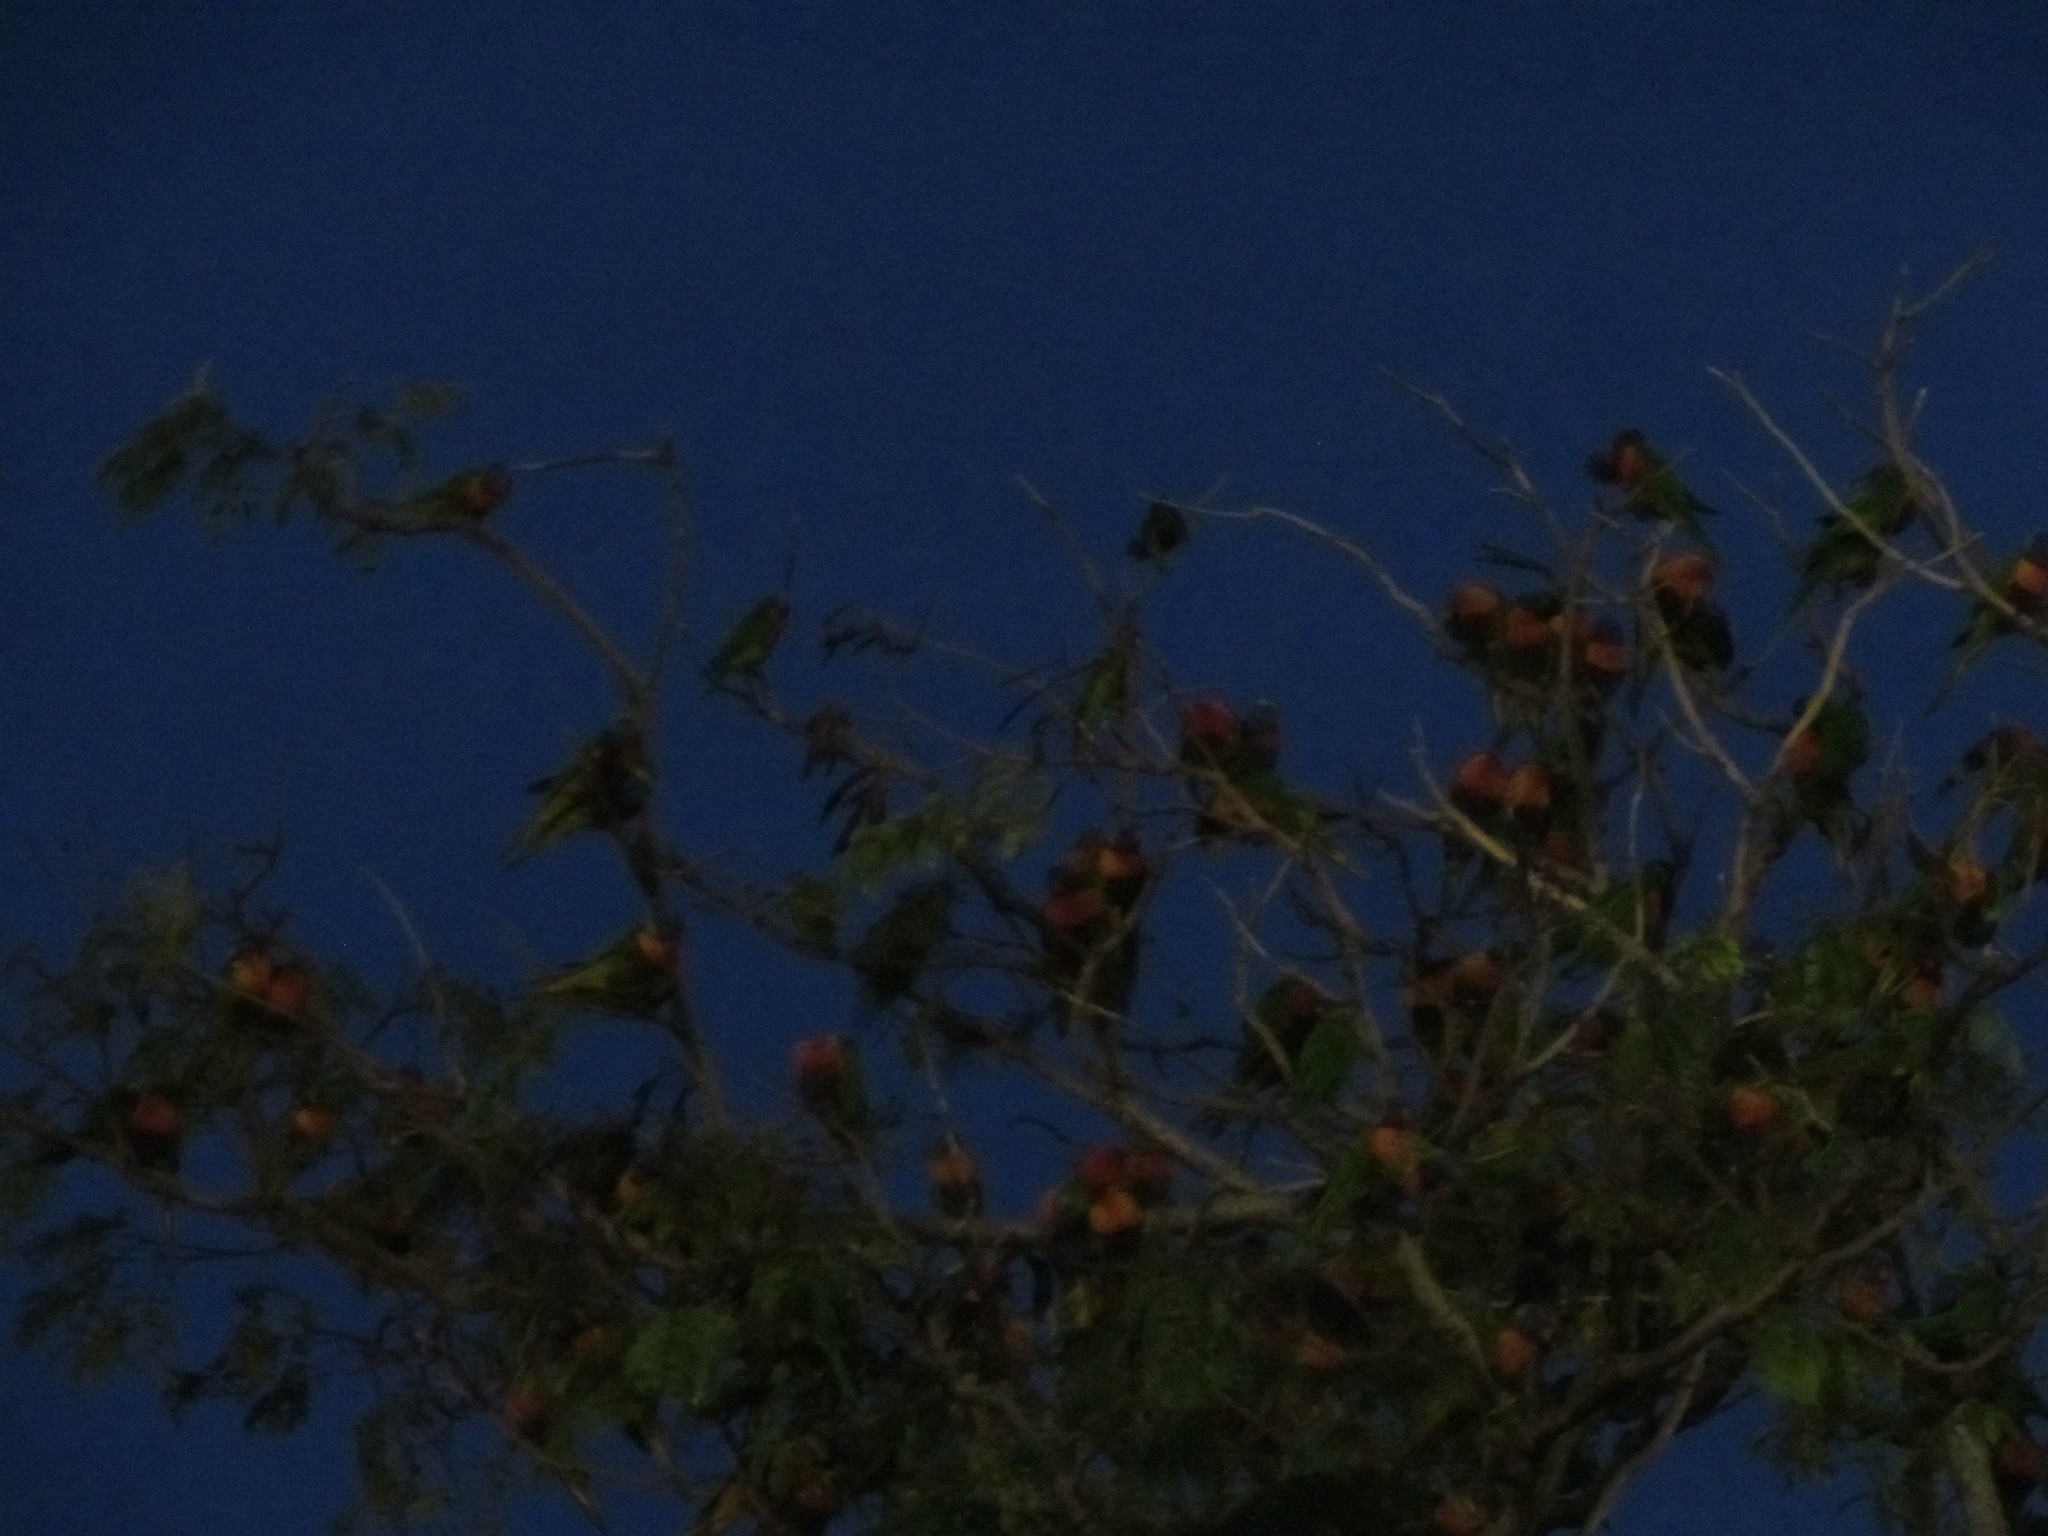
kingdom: Animalia
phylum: Chordata
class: Aves
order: Psittaciformes
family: Psittacidae
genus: Trichoglossus
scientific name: Trichoglossus haematodus
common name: Coconut lorikeet
